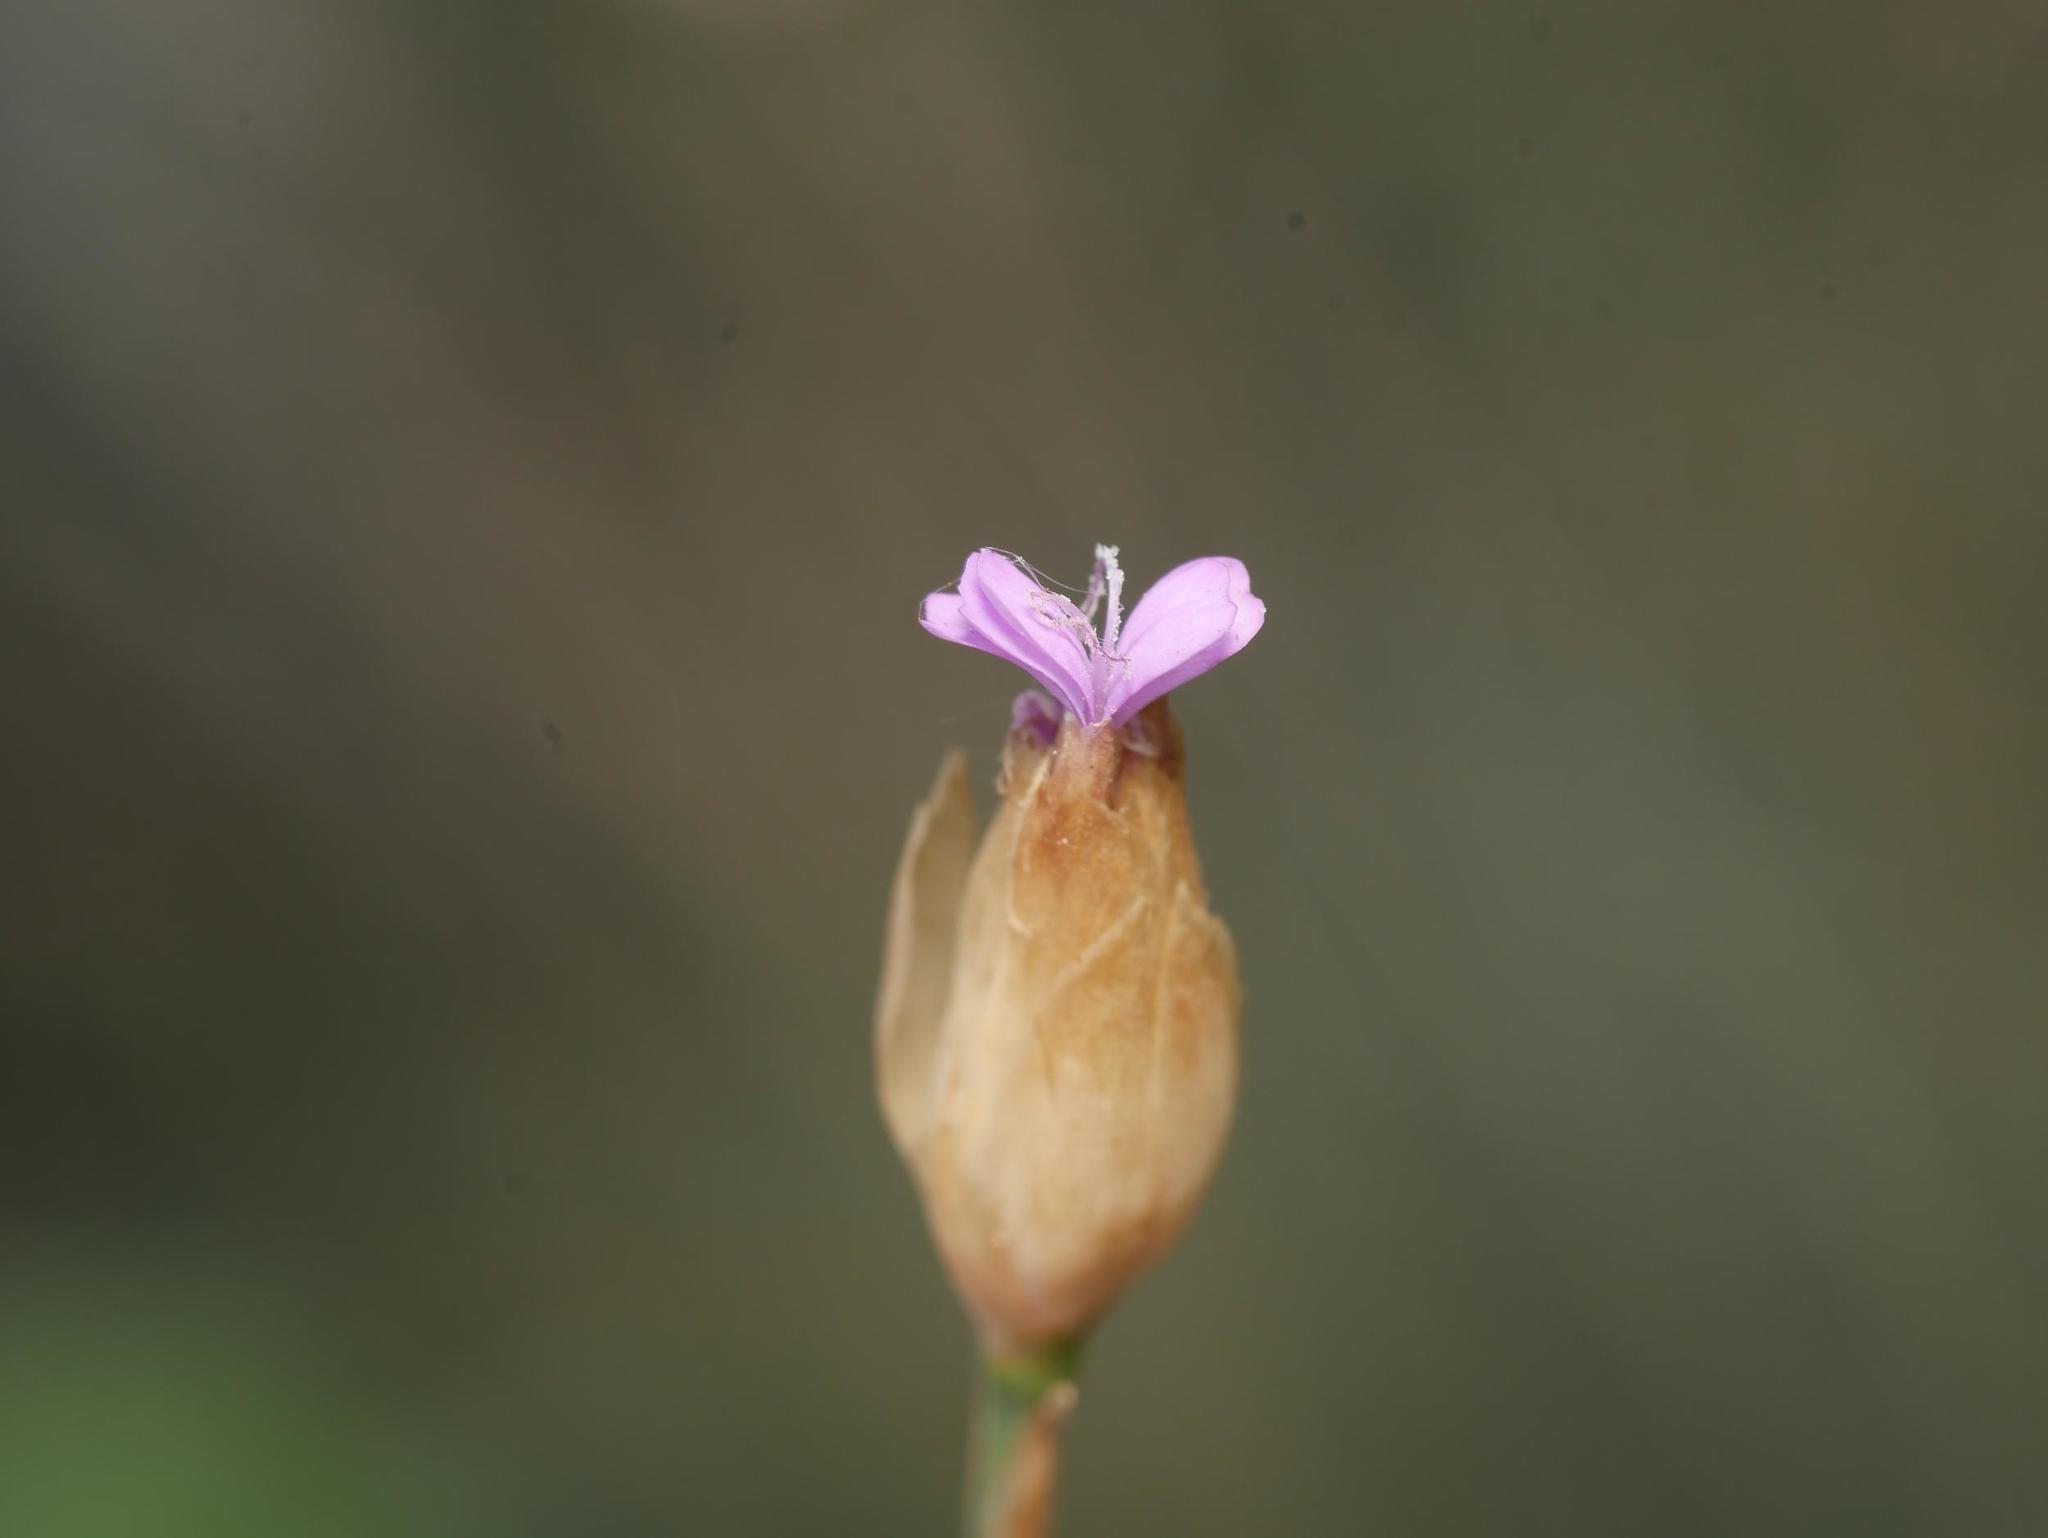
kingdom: Plantae
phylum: Tracheophyta
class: Magnoliopsida
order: Caryophyllales
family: Caryophyllaceae
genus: Petrorhagia
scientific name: Petrorhagia prolifera
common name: Proliferous pink
